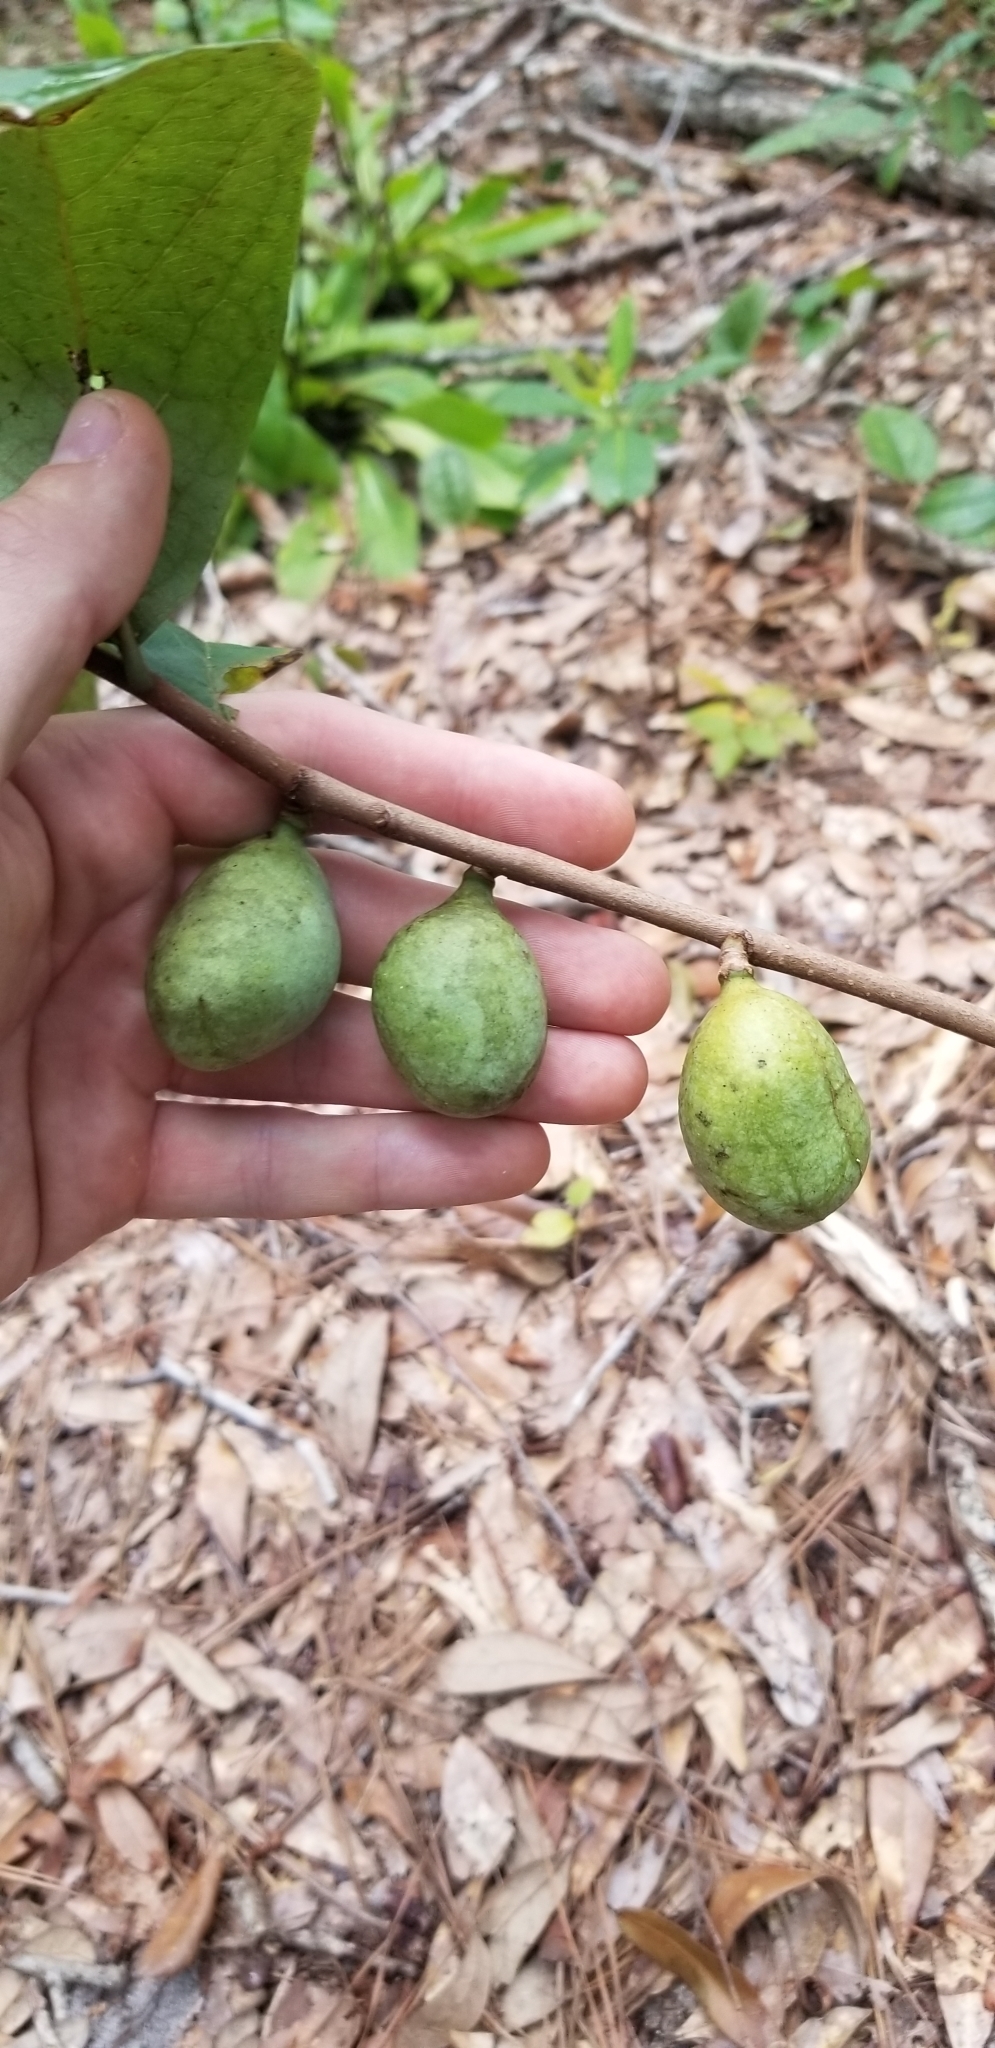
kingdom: Plantae
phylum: Tracheophyta
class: Magnoliopsida
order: Magnoliales
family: Annonaceae
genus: Asimina
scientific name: Asimina parviflora
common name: Dwarf pawpaw
